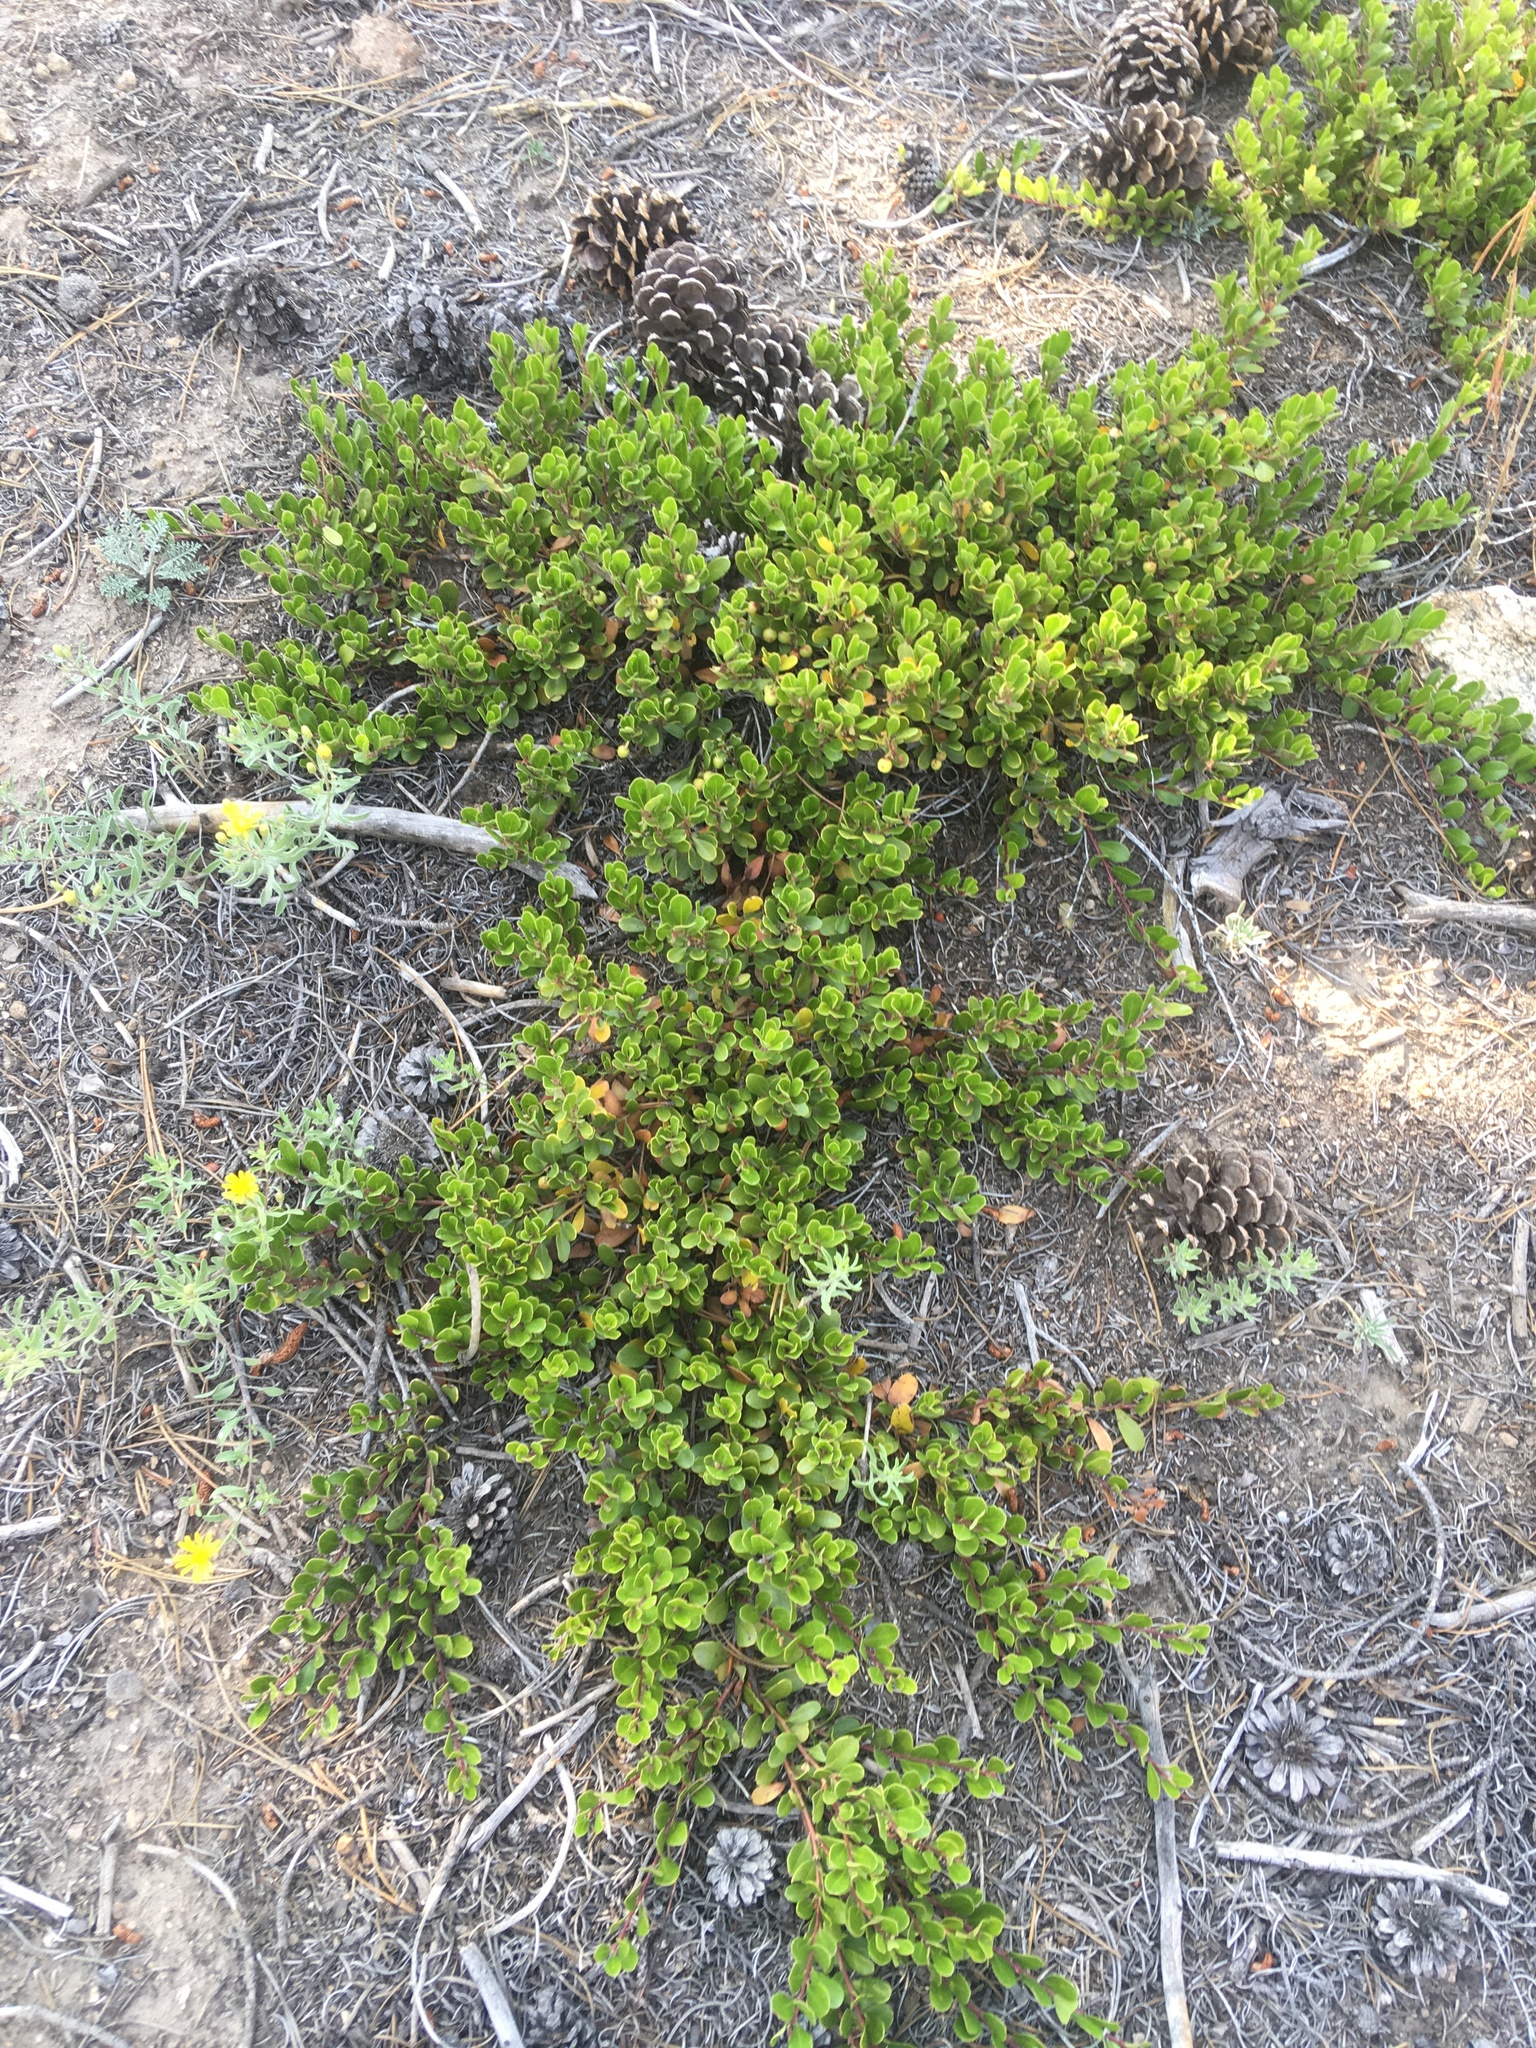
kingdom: Plantae
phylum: Tracheophyta
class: Magnoliopsida
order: Ericales
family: Ericaceae
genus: Arctostaphylos
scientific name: Arctostaphylos uva-ursi
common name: Bearberry
